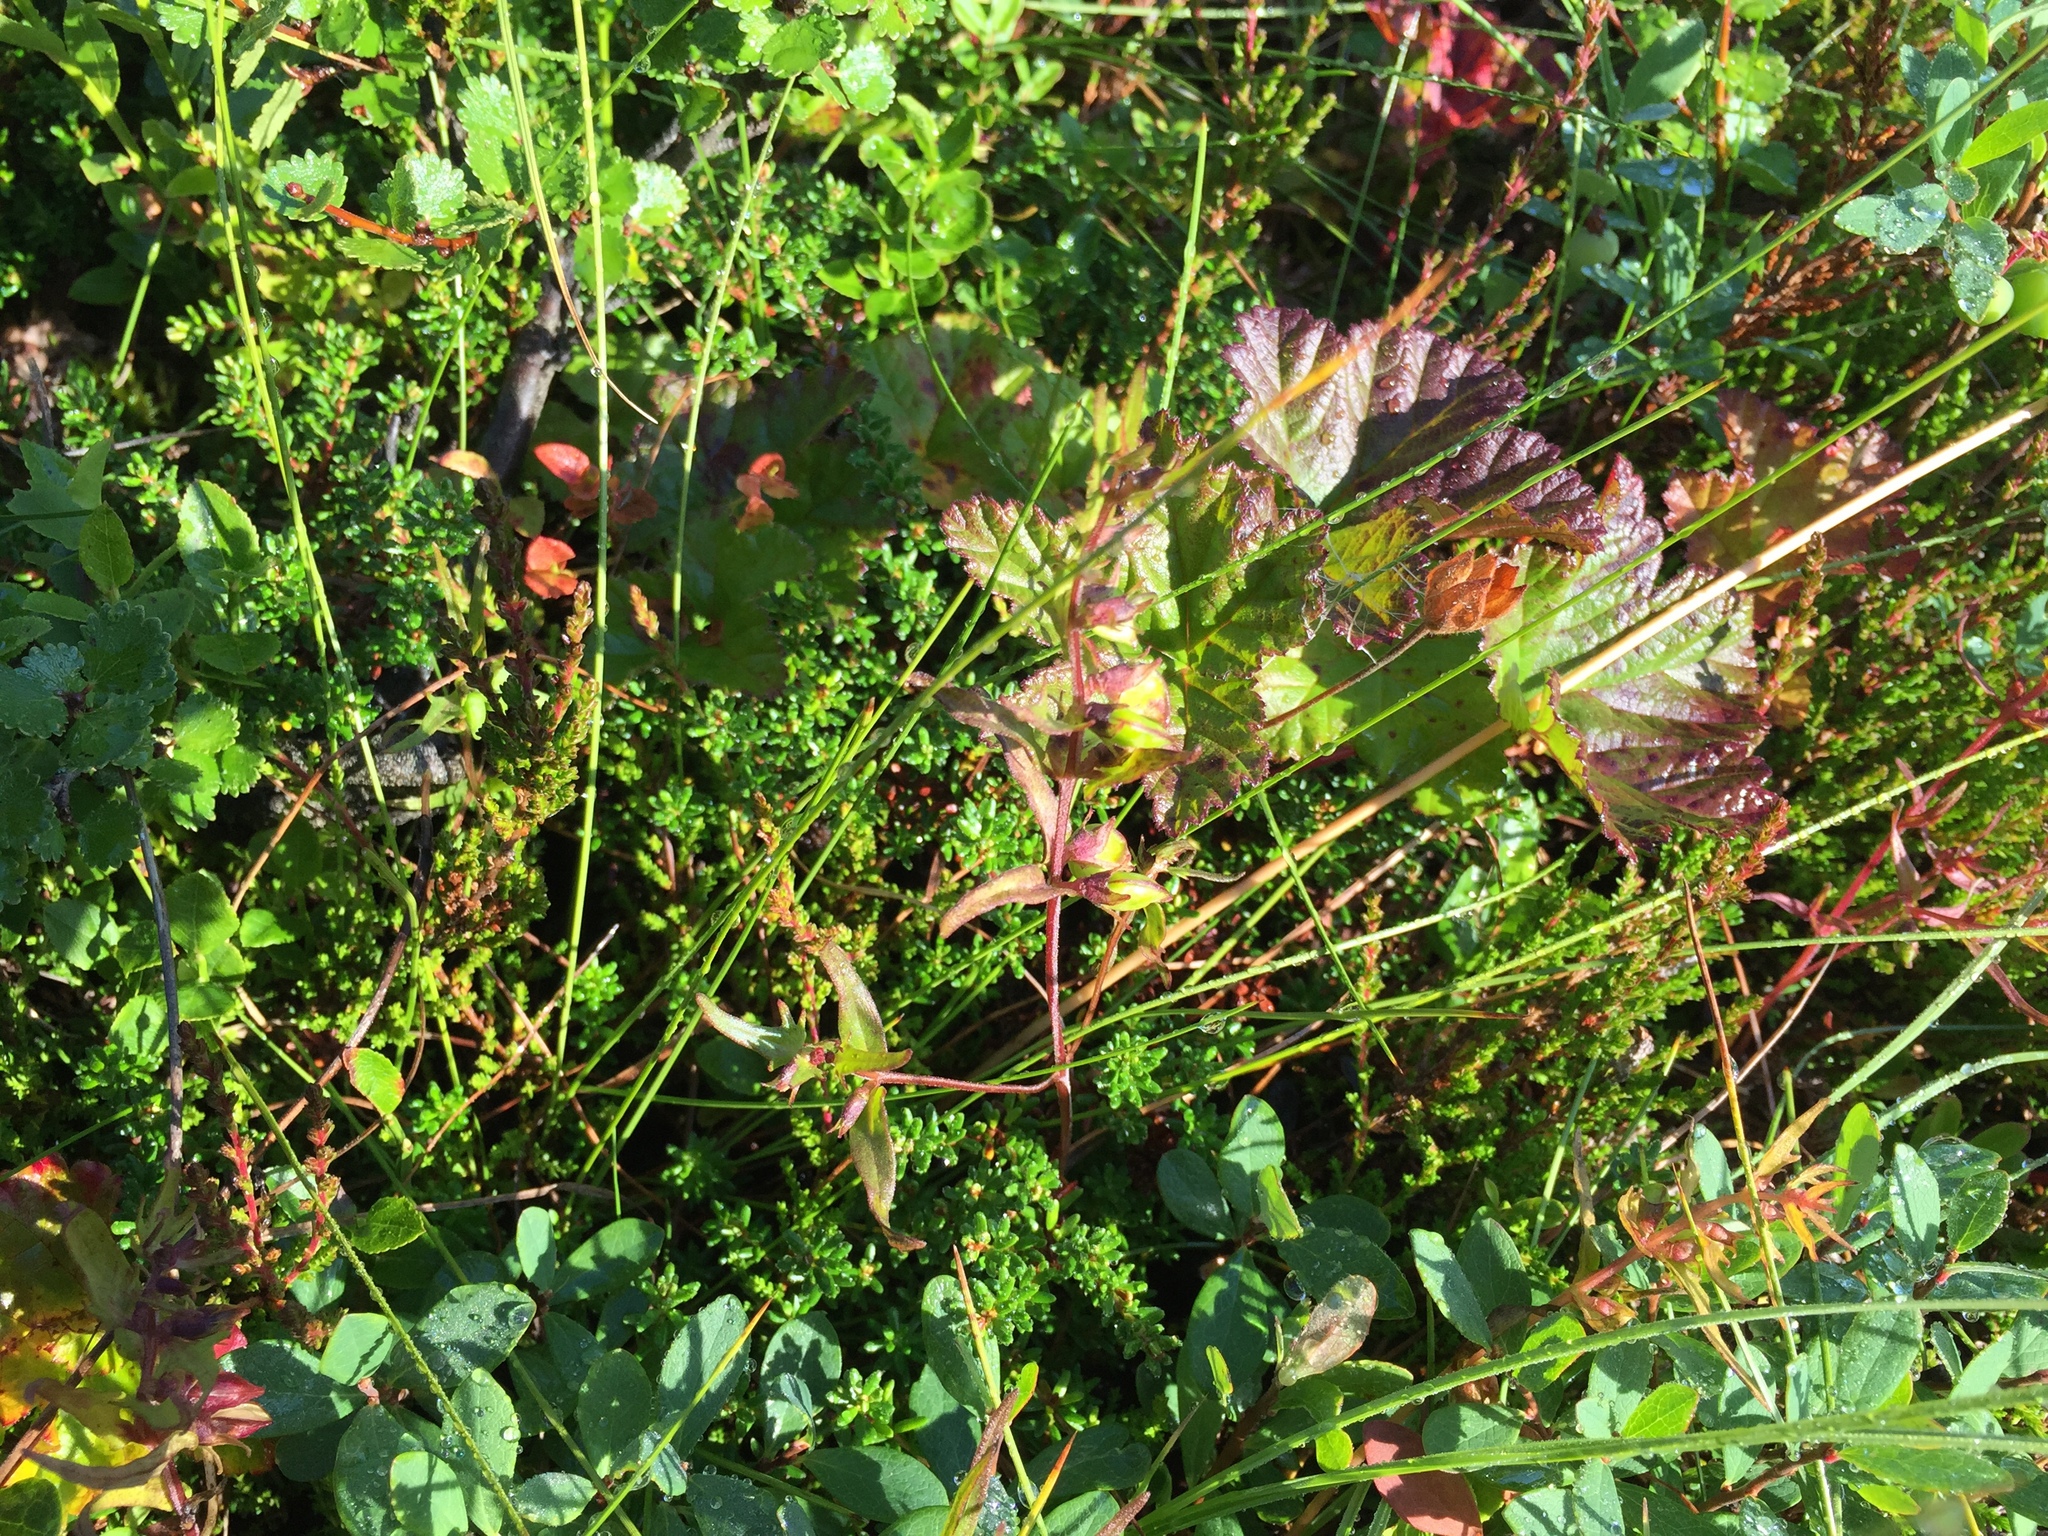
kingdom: Plantae
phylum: Tracheophyta
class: Magnoliopsida
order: Rosales
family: Rosaceae
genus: Rubus
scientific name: Rubus chamaemorus
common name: Cloudberry
